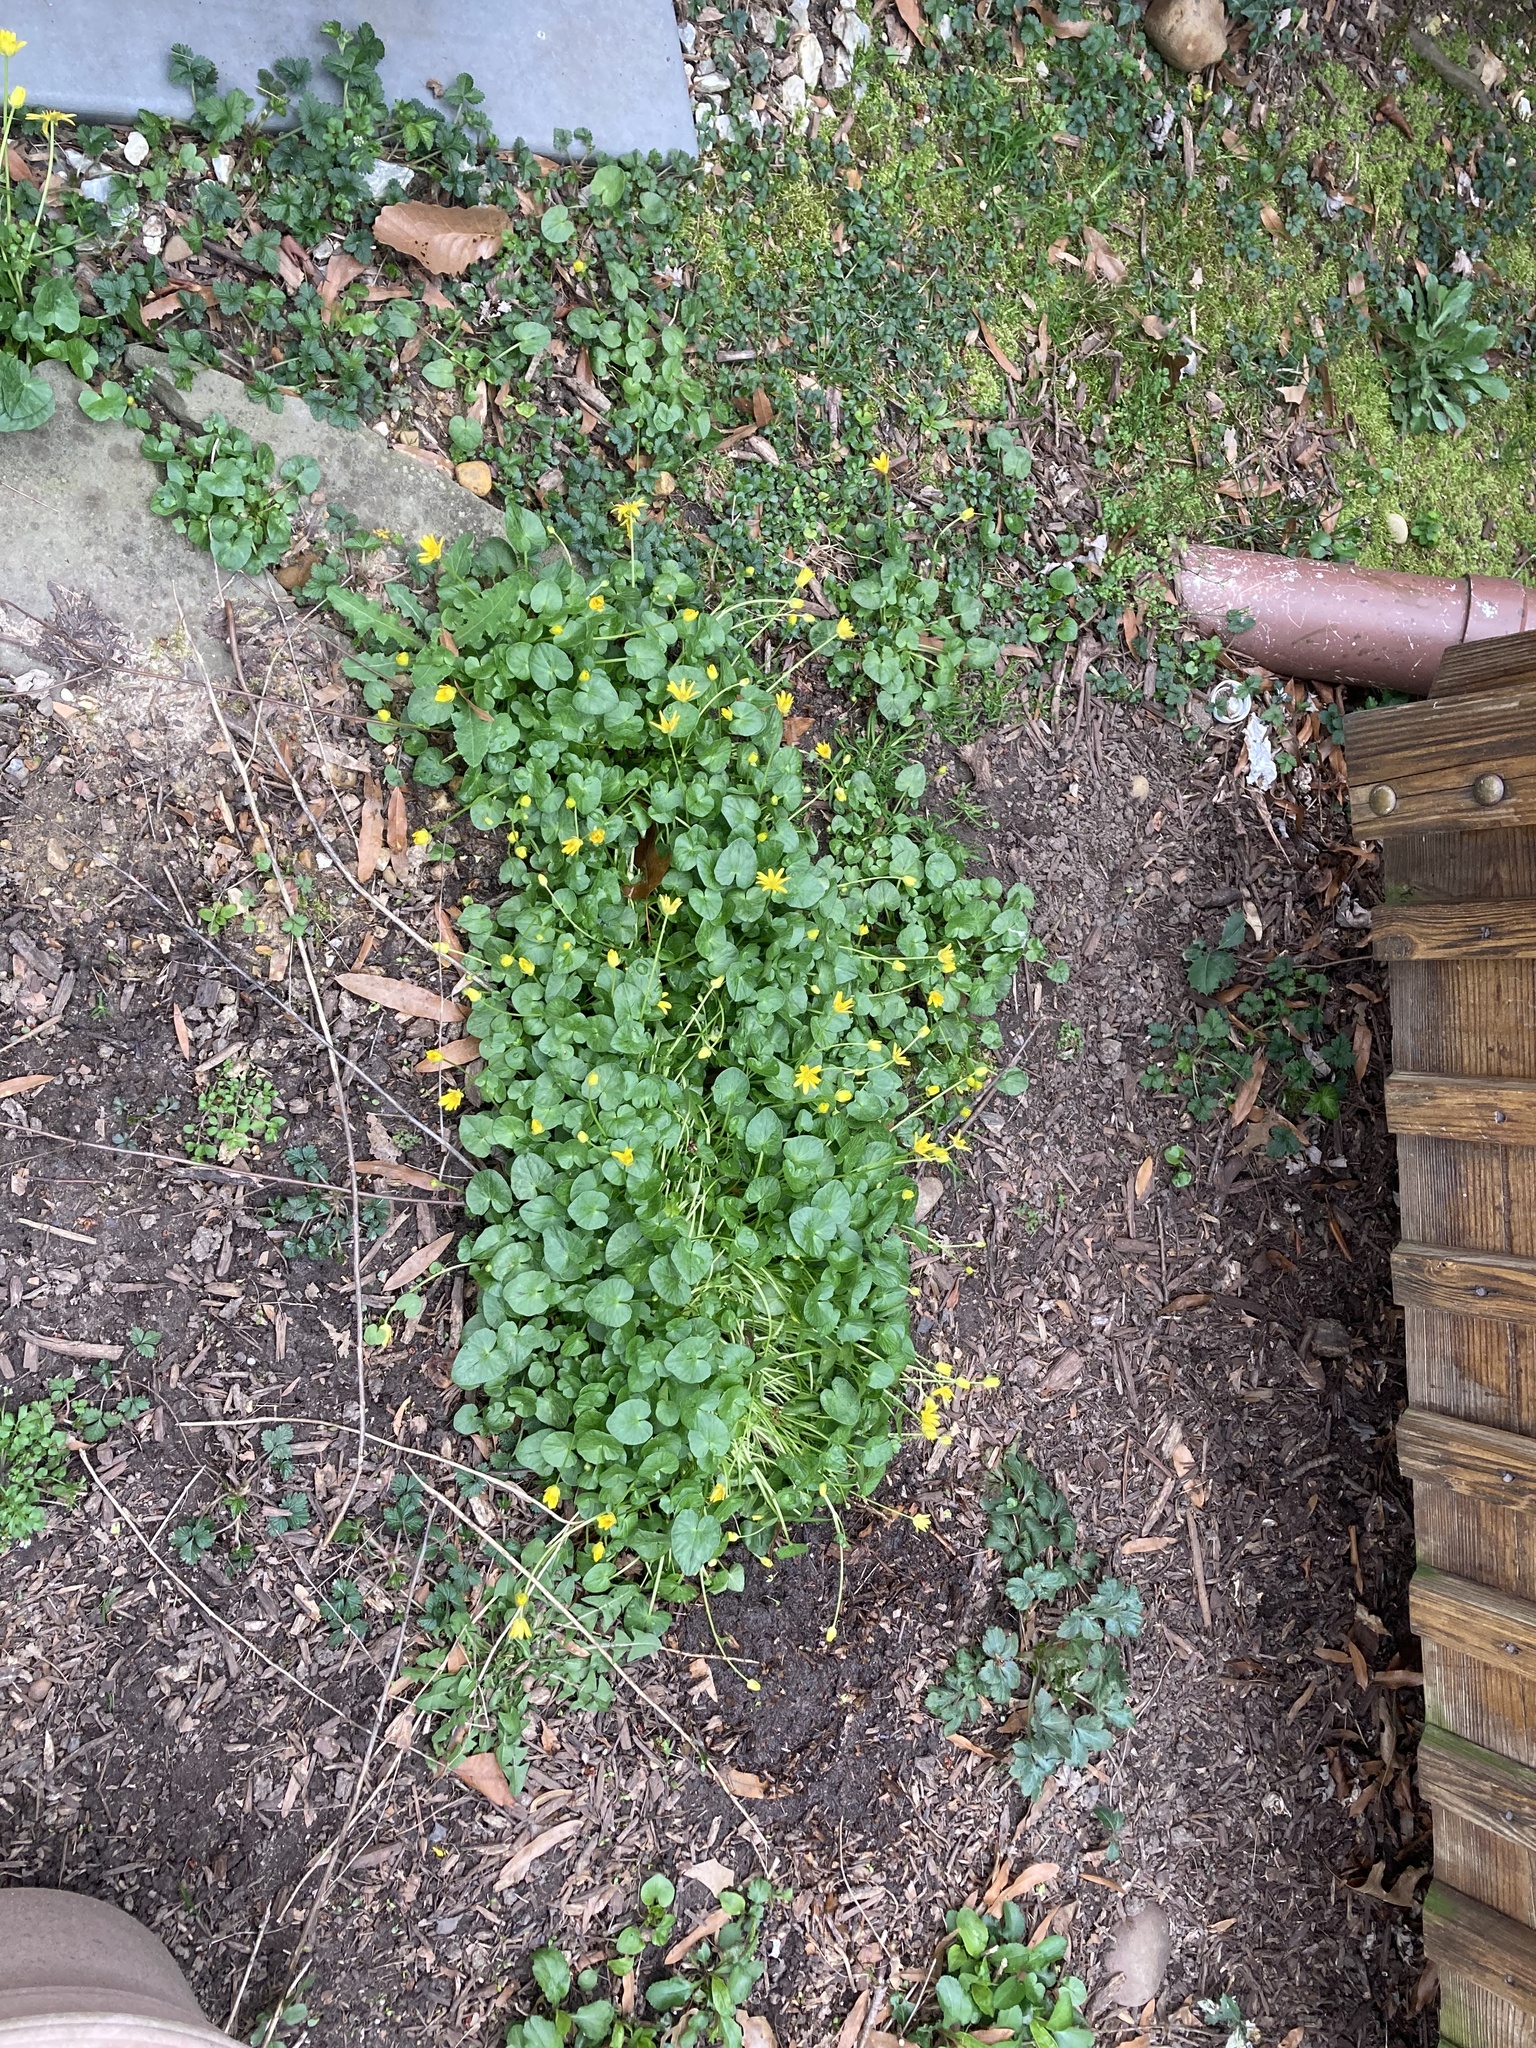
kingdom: Plantae
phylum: Tracheophyta
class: Magnoliopsida
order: Ranunculales
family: Ranunculaceae
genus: Ficaria
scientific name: Ficaria verna
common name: Lesser celandine
